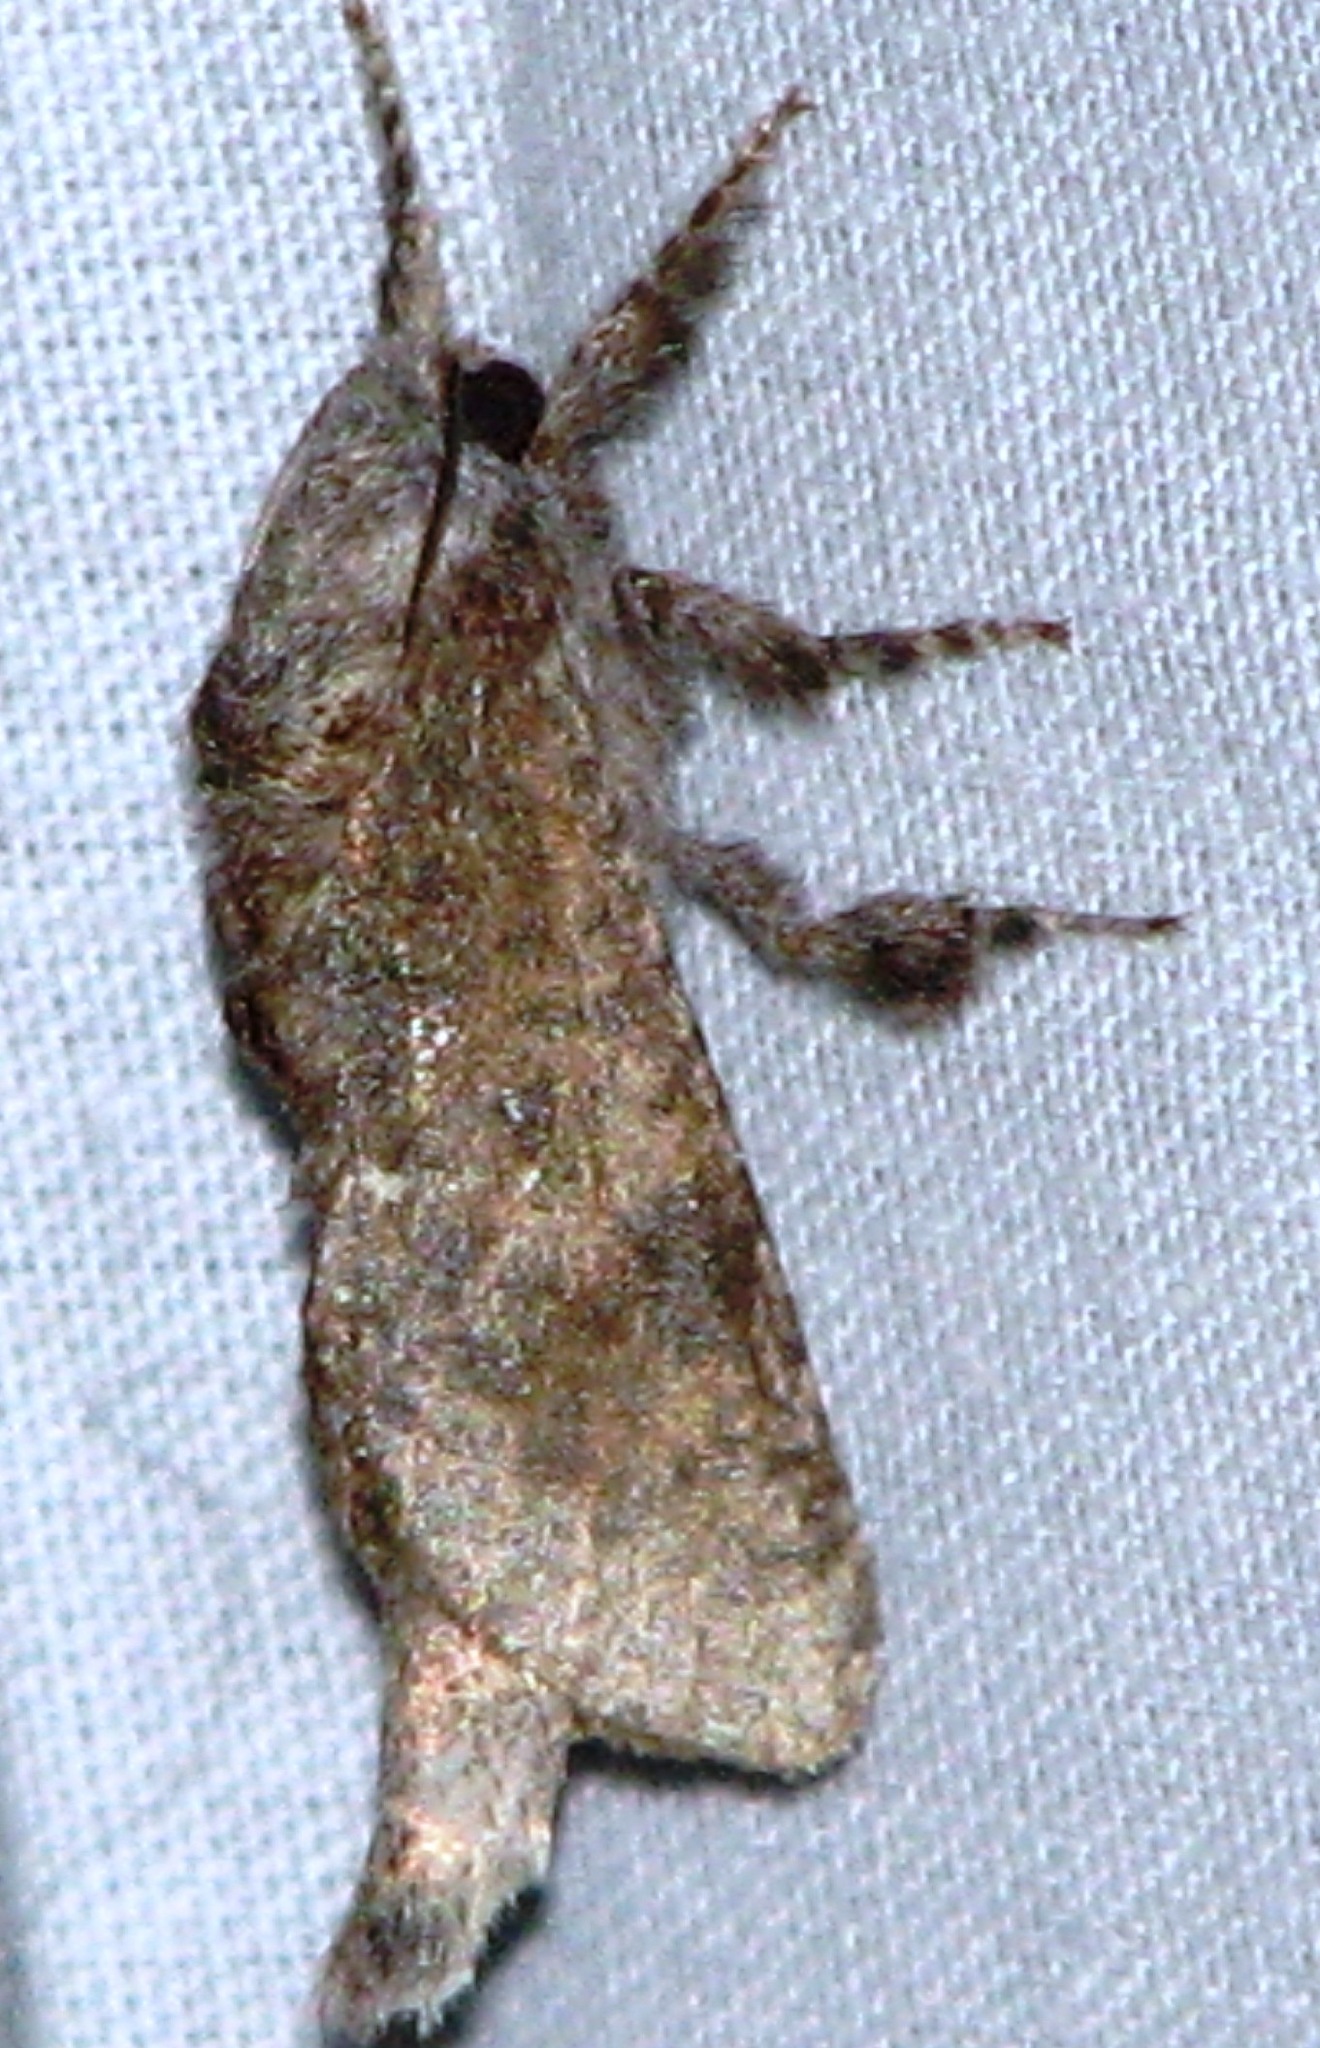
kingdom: Animalia
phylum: Arthropoda
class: Insecta
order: Lepidoptera
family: Cossidae
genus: Givira
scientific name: Givira arbeloides
